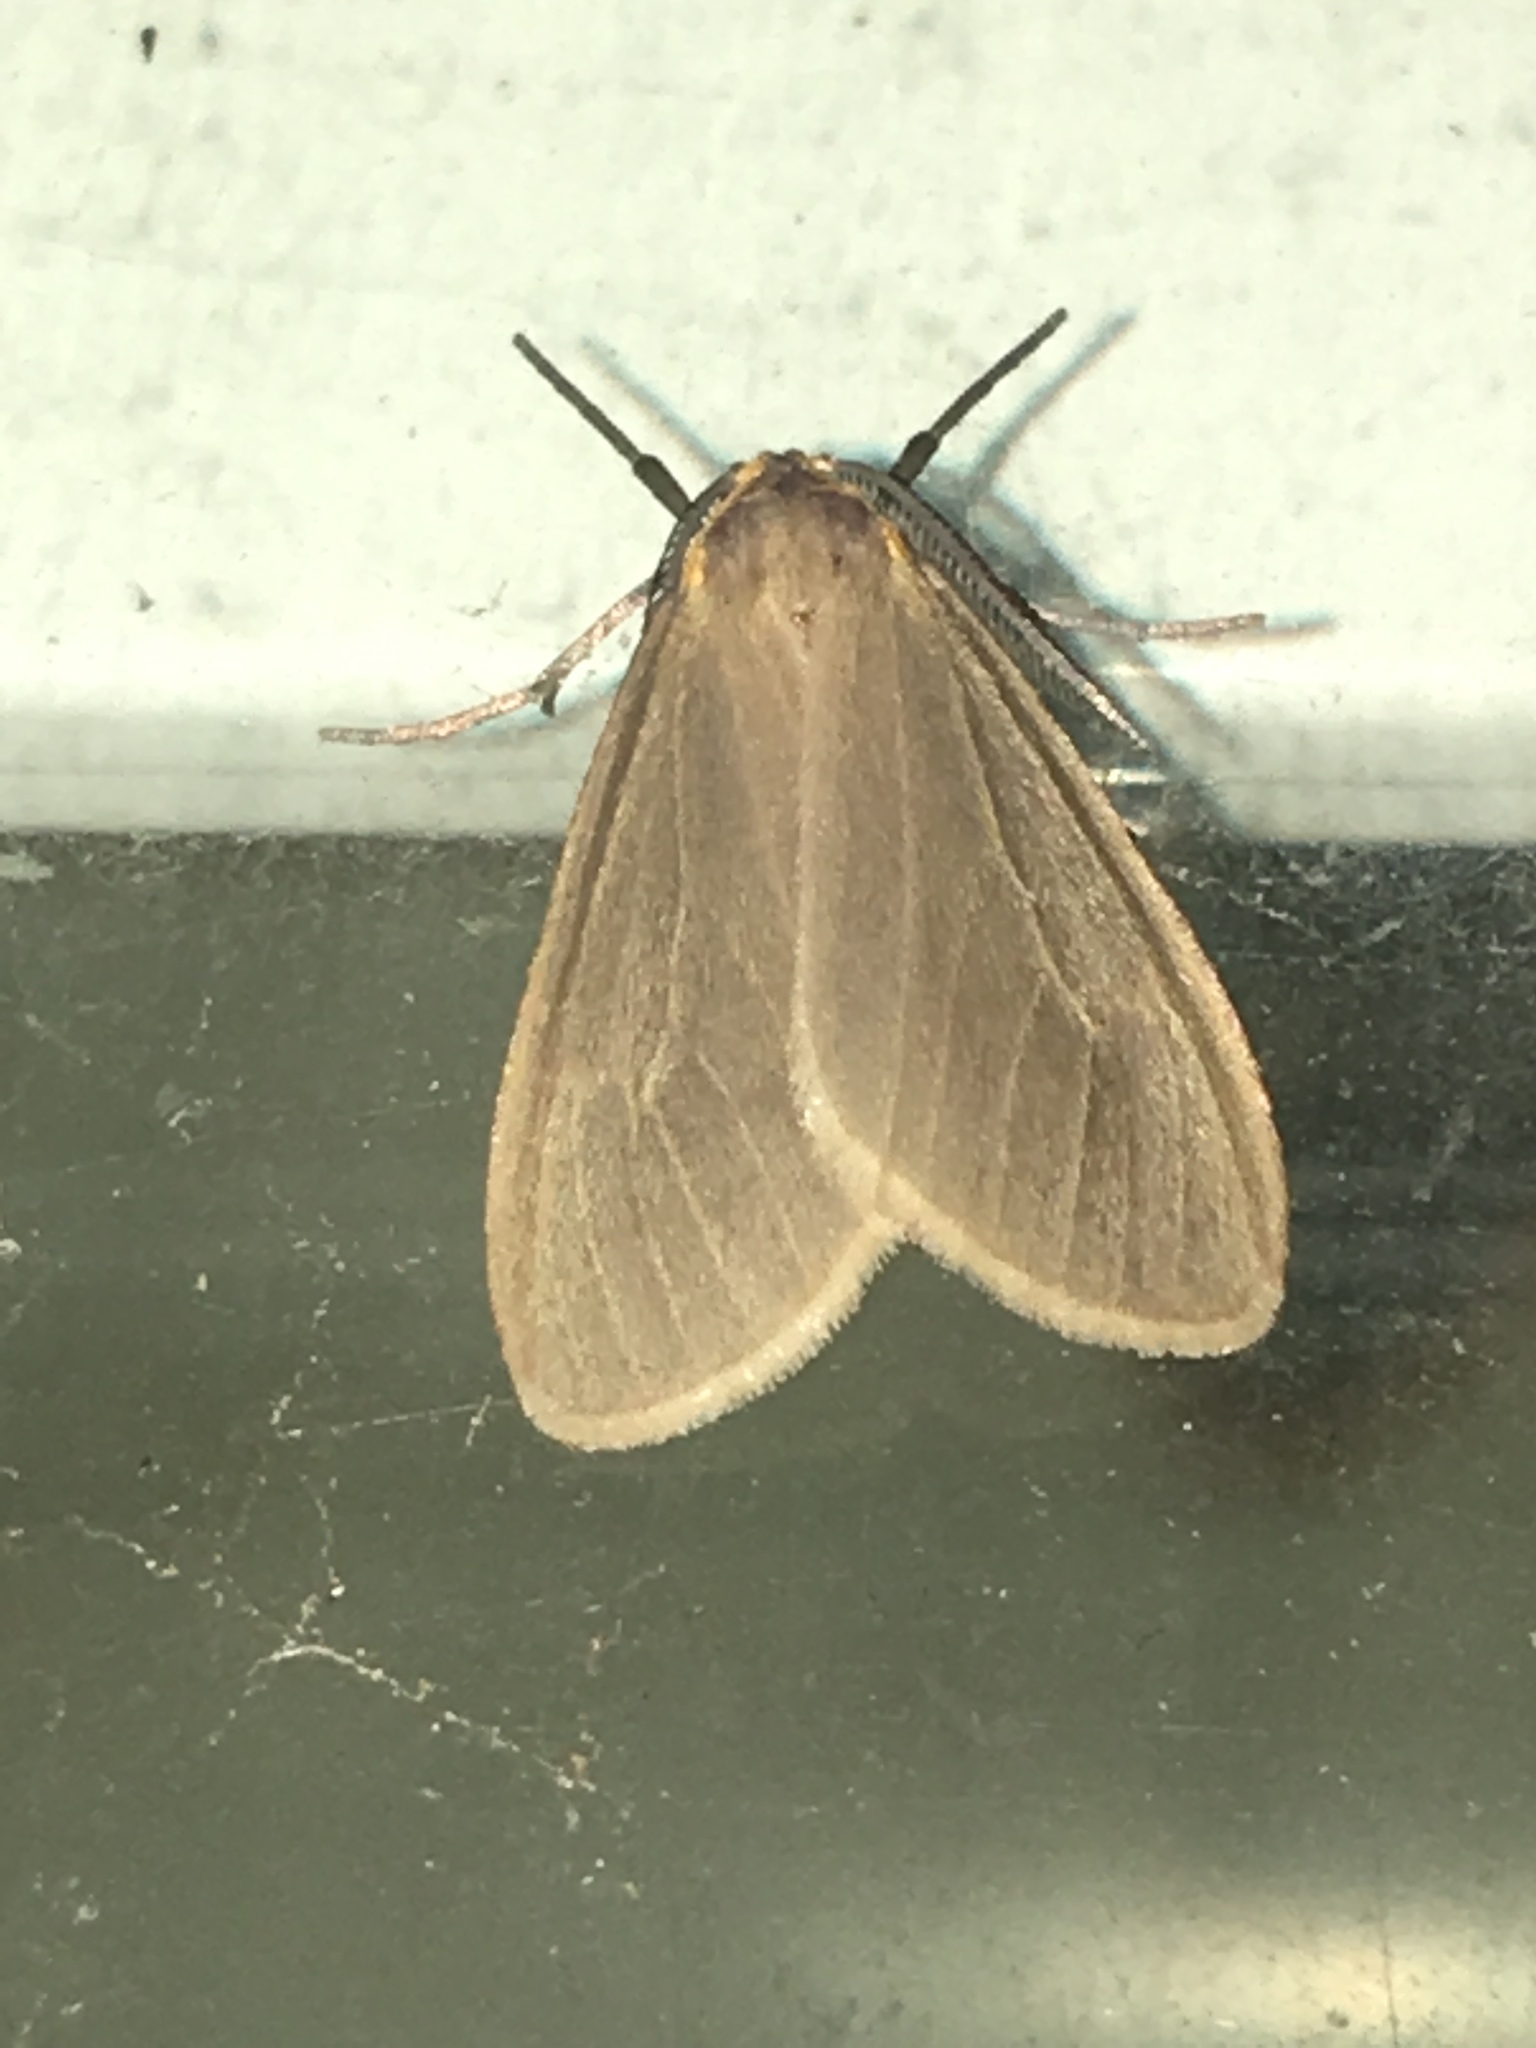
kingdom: Animalia
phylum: Arthropoda
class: Insecta
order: Lepidoptera
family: Erebidae
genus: Pagara
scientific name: Pagara simplex
